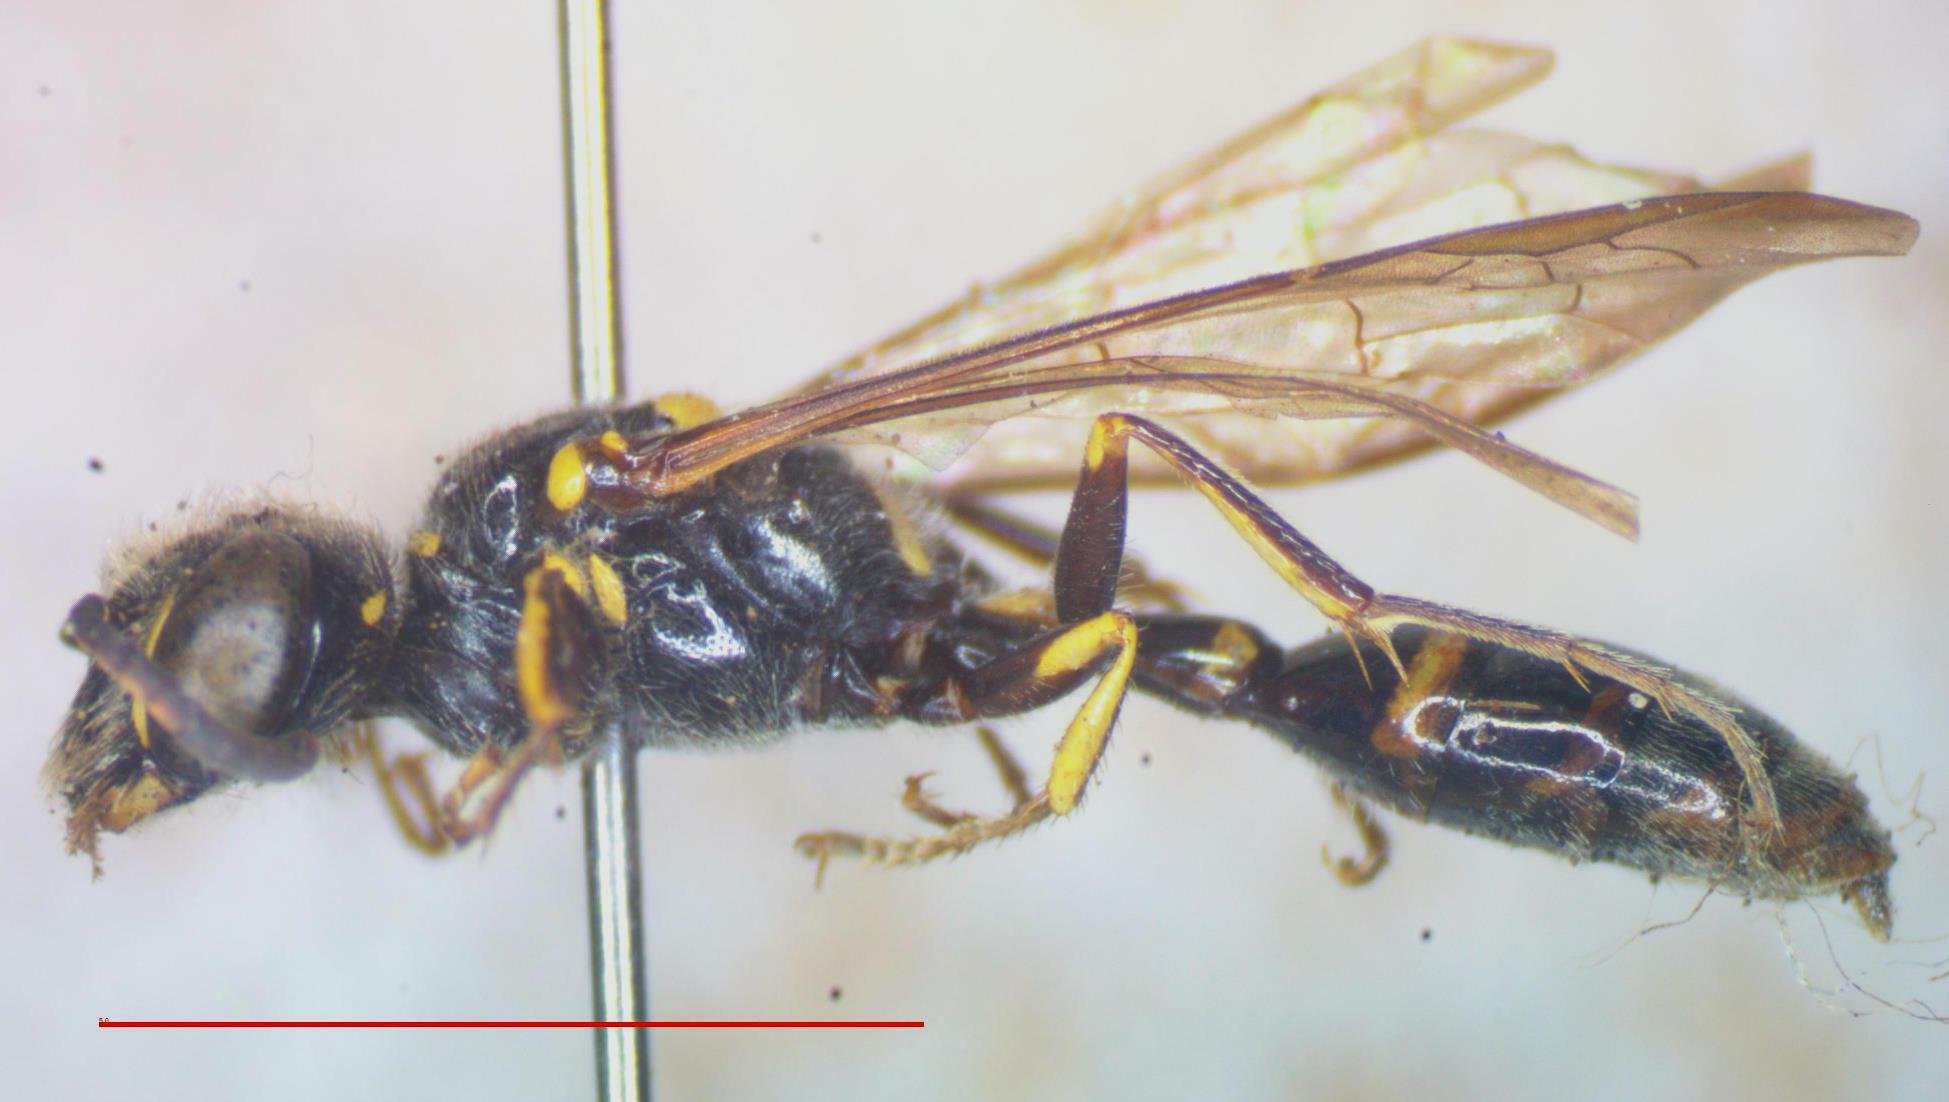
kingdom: Animalia
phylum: Arthropoda
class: Insecta
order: Hymenoptera
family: Crabronidae
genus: Trachypus
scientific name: Trachypus flavidus
